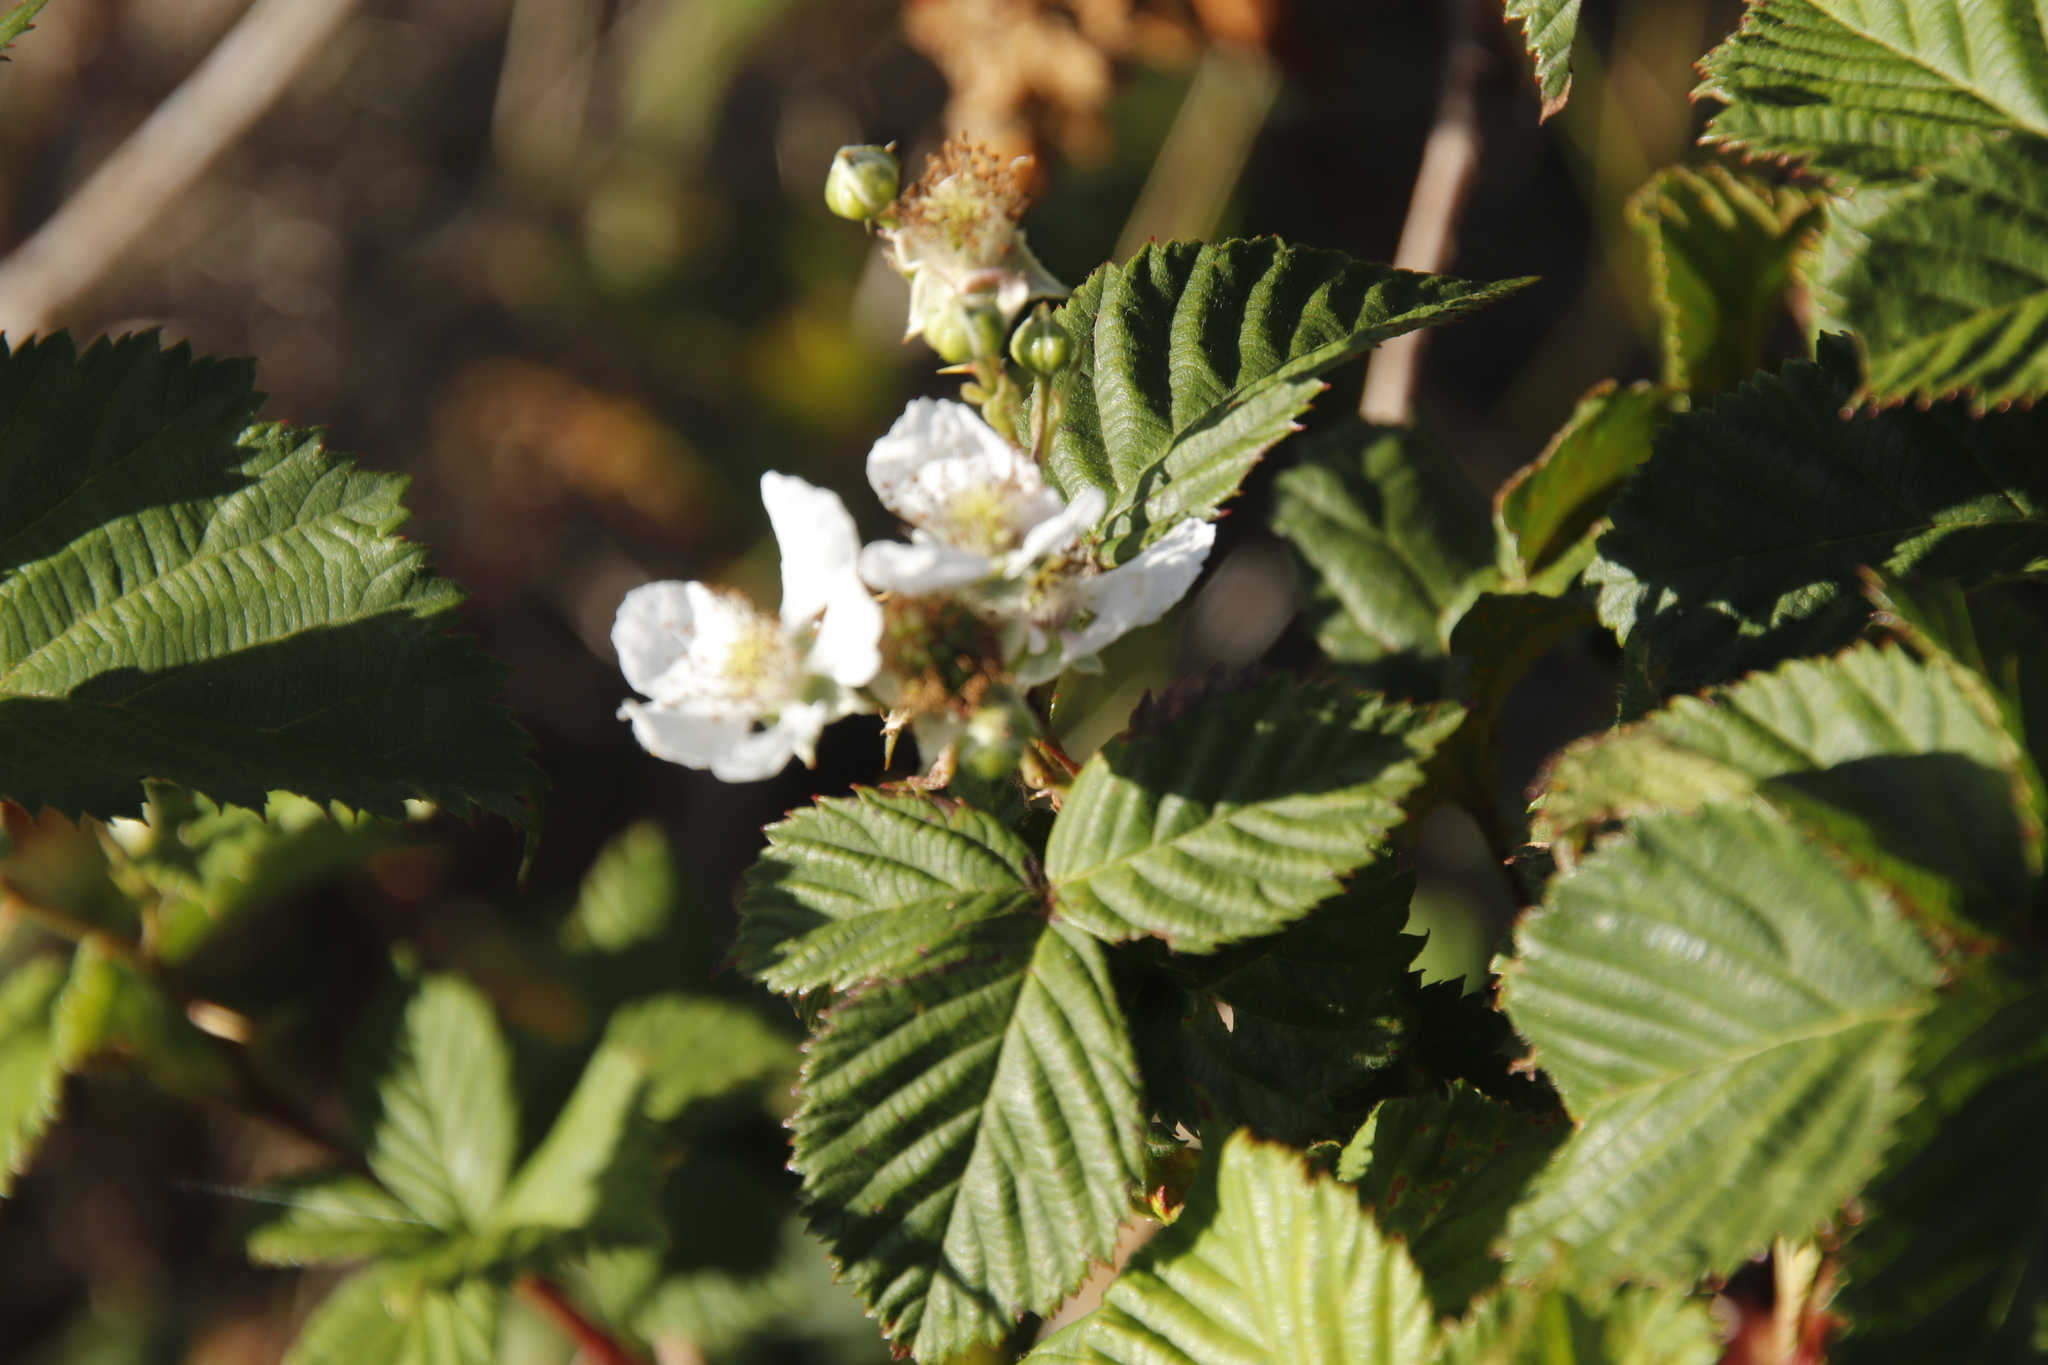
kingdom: Plantae
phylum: Tracheophyta
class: Magnoliopsida
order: Rosales
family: Rosaceae
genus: Rubus
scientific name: Rubus affinis
